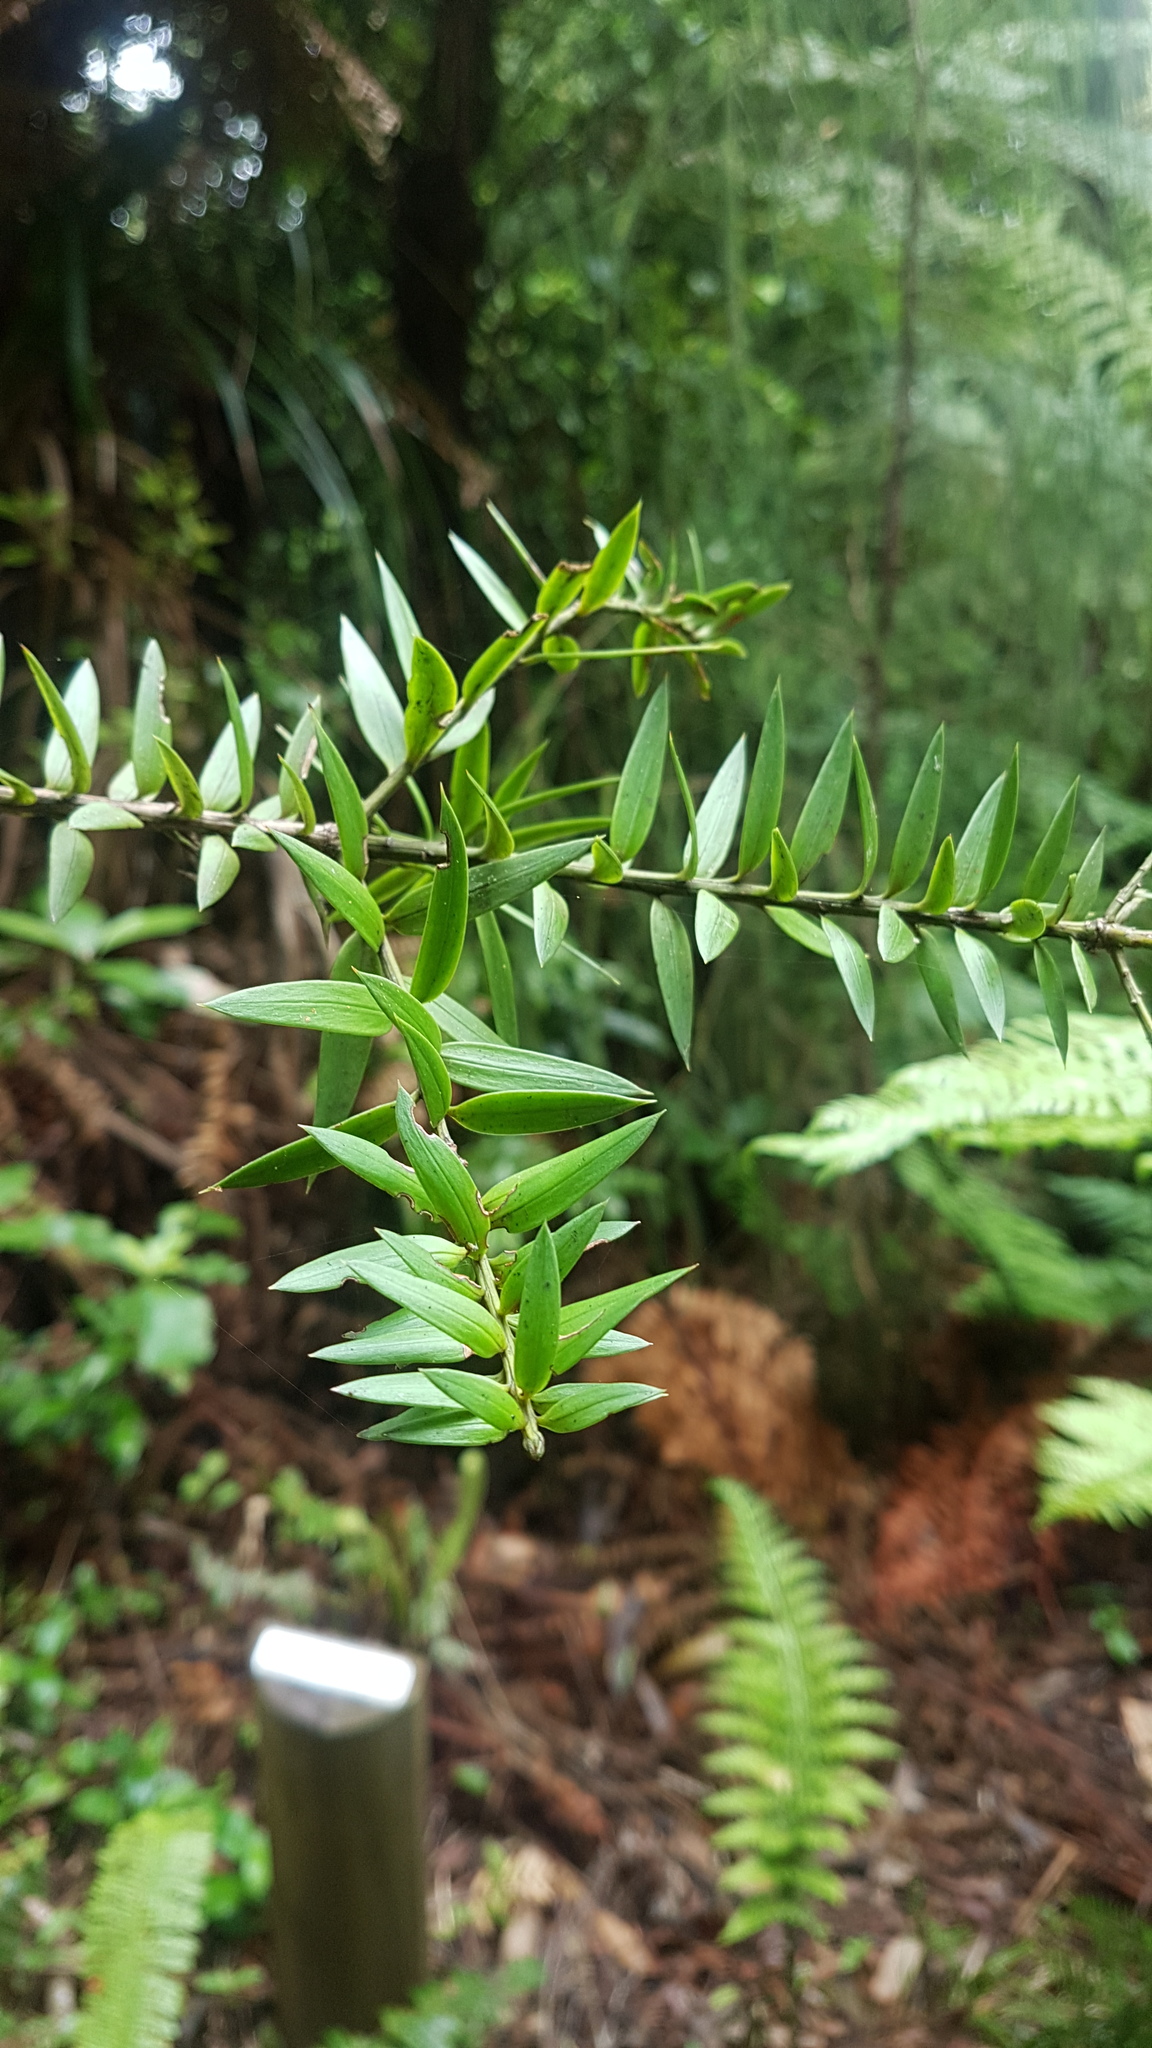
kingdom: Plantae
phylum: Tracheophyta
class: Pinopsida
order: Pinales
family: Podocarpaceae
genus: Podocarpus
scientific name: Podocarpus totara
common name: Totara
